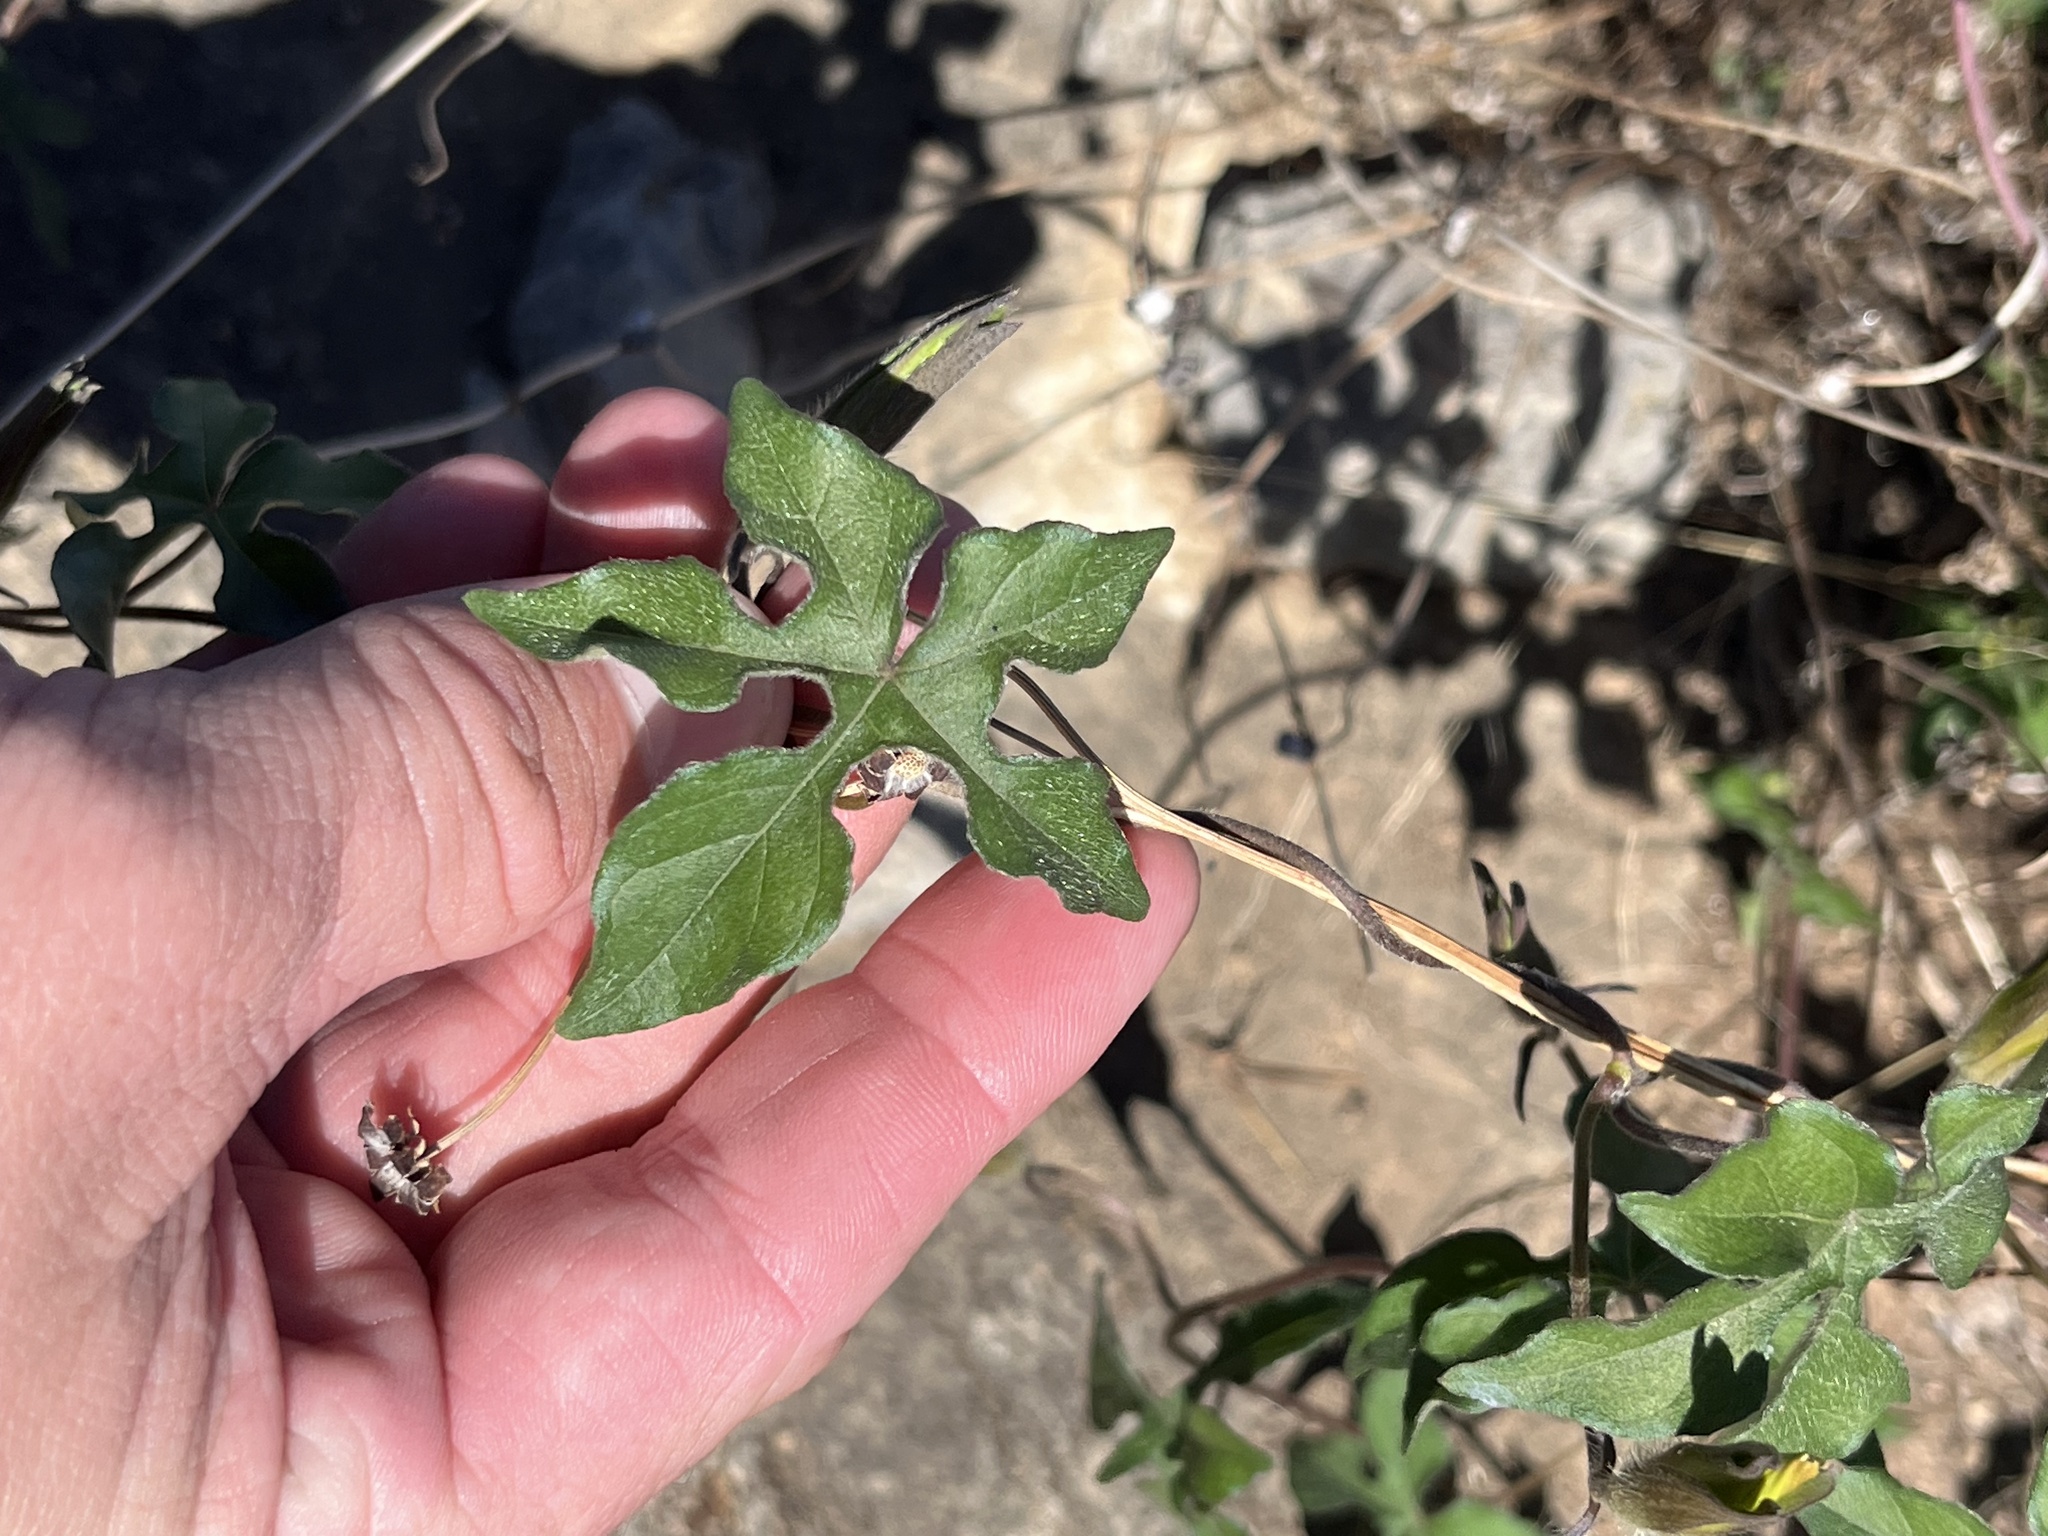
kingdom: Plantae
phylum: Tracheophyta
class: Magnoliopsida
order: Solanales
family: Convolvulaceae
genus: Ipomoea
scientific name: Ipomoea lindheimeri
